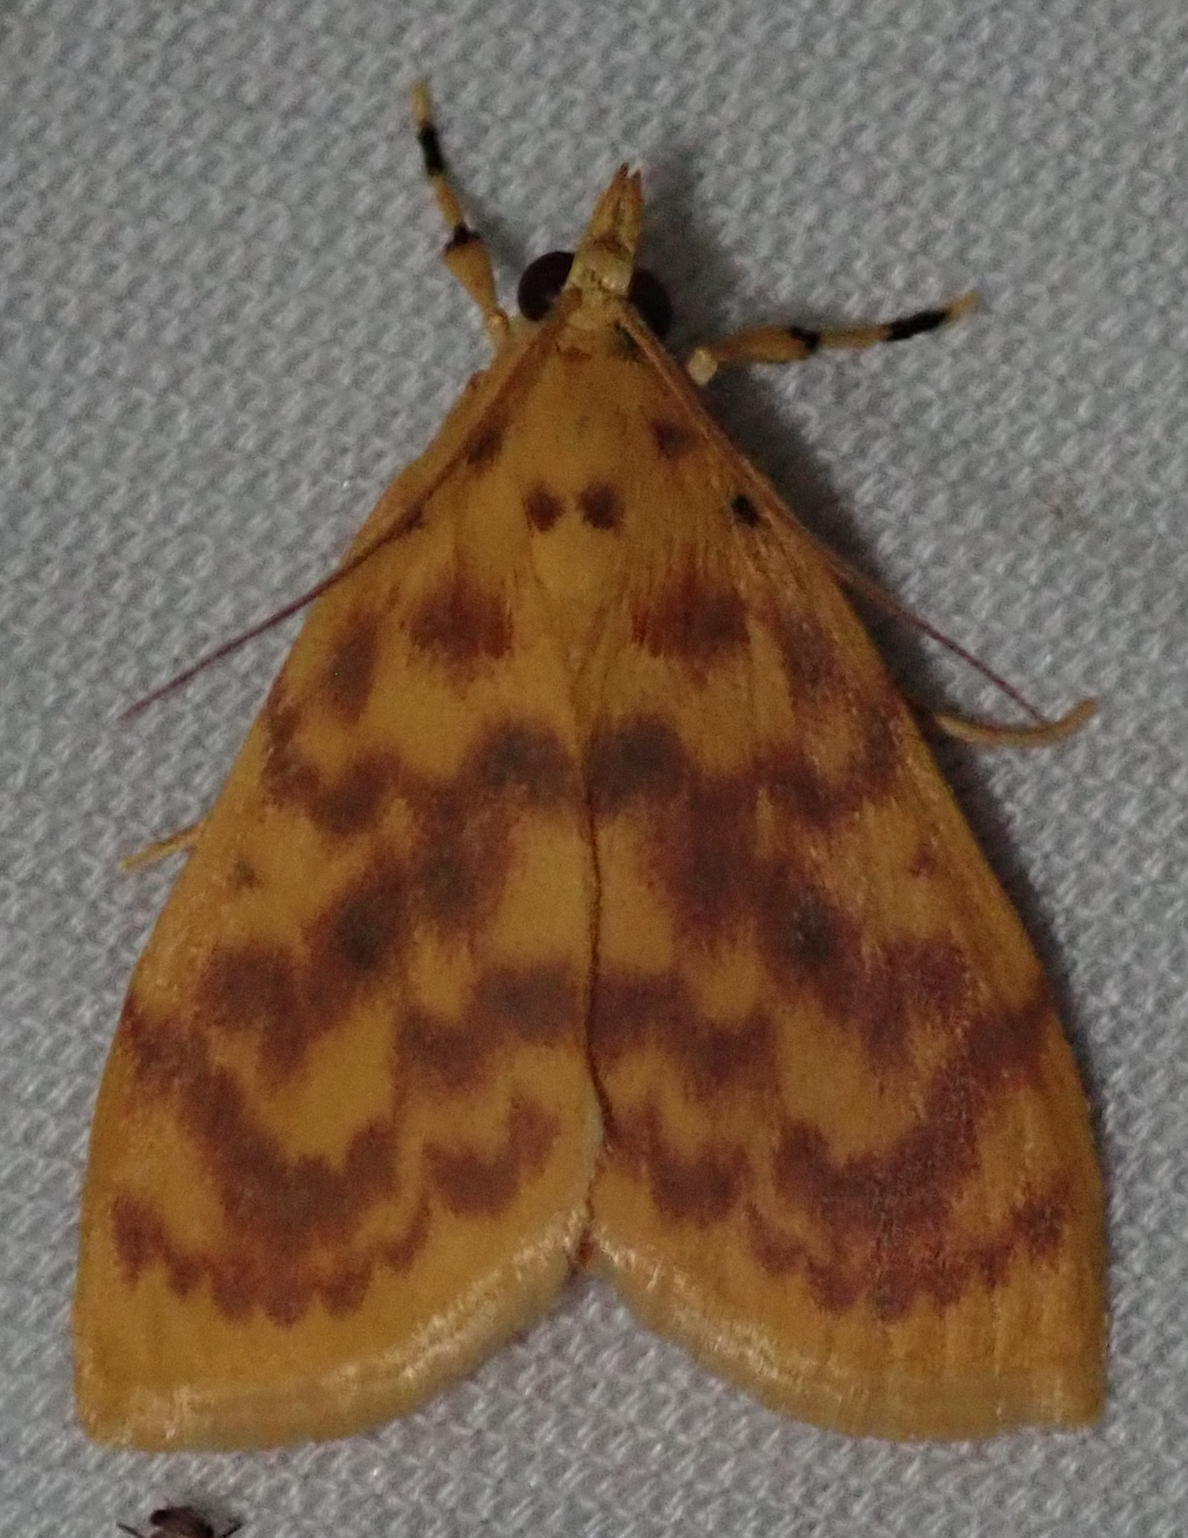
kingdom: Animalia
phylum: Arthropoda
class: Insecta
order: Lepidoptera
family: Crambidae
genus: Epipagis
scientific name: Epipagis olesialis
